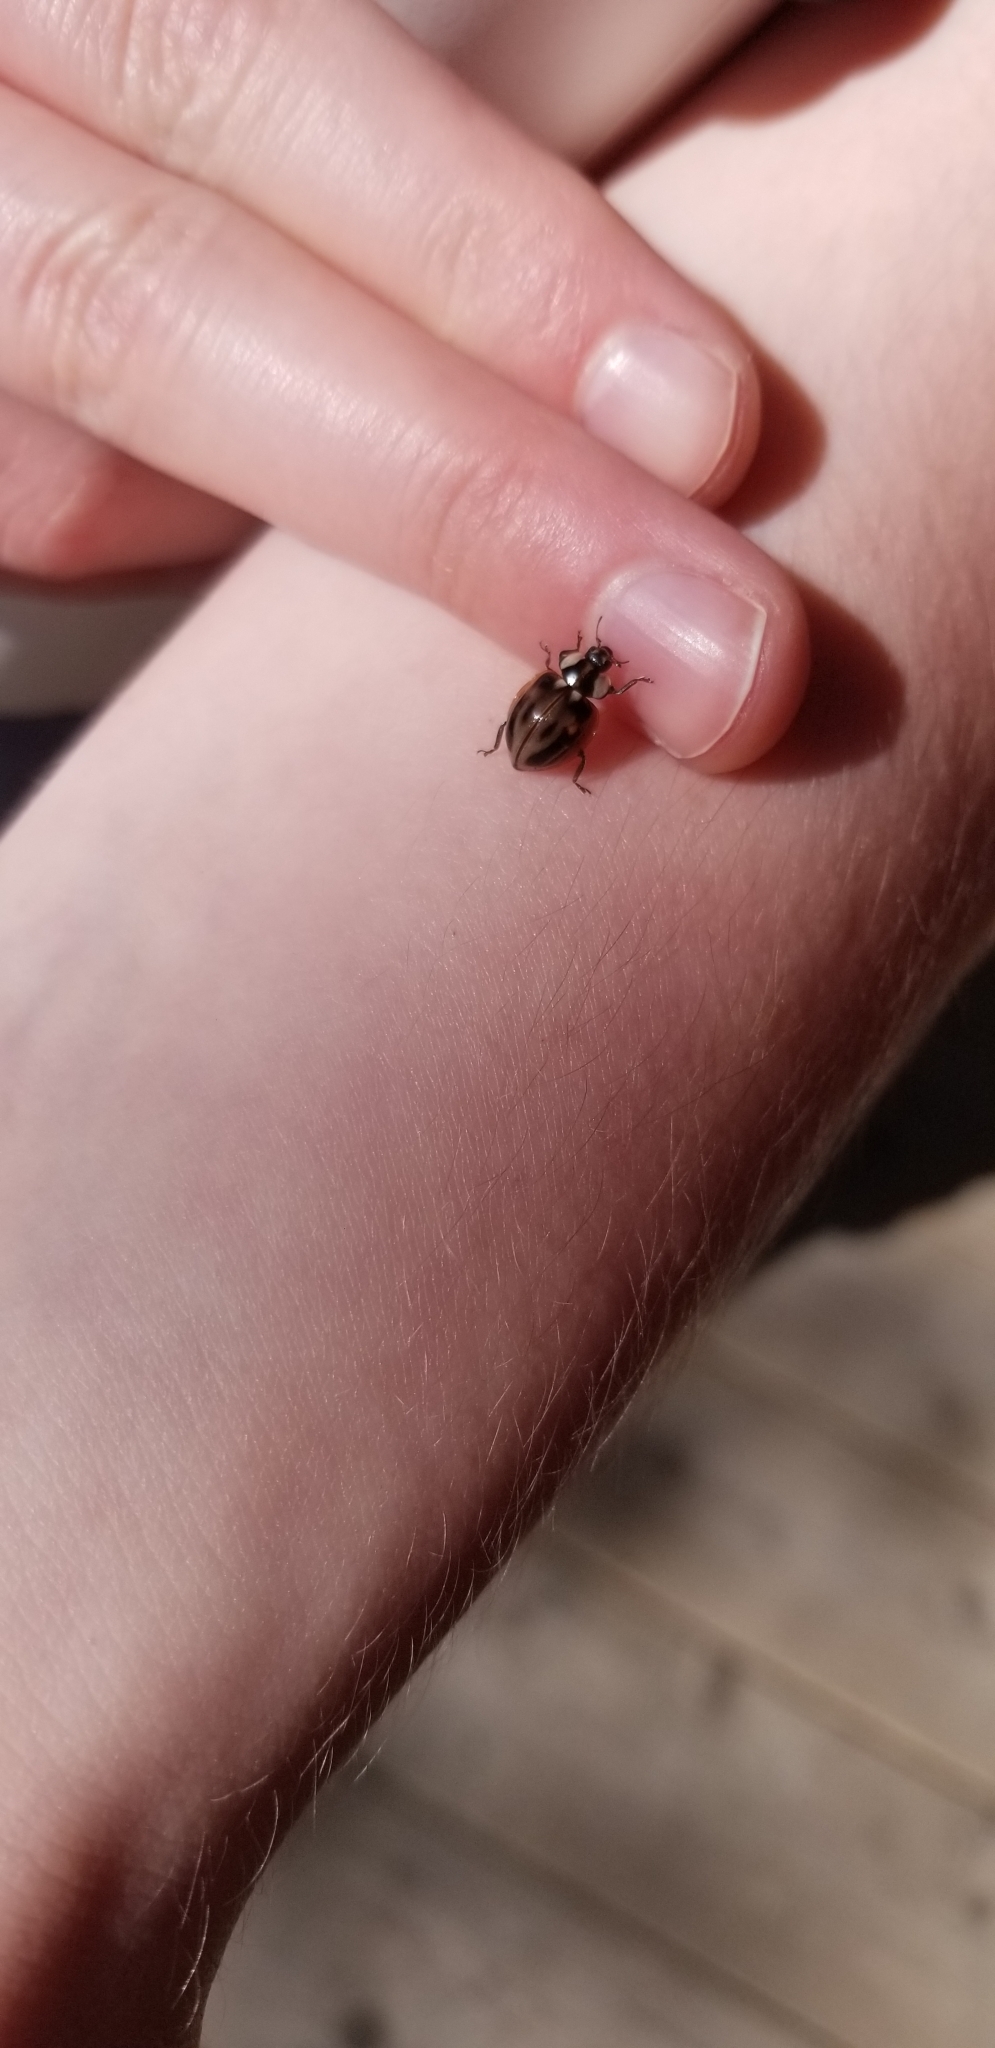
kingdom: Animalia
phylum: Arthropoda
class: Insecta
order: Coleoptera
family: Coccinellidae
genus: Myzia
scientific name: Myzia subvittata
